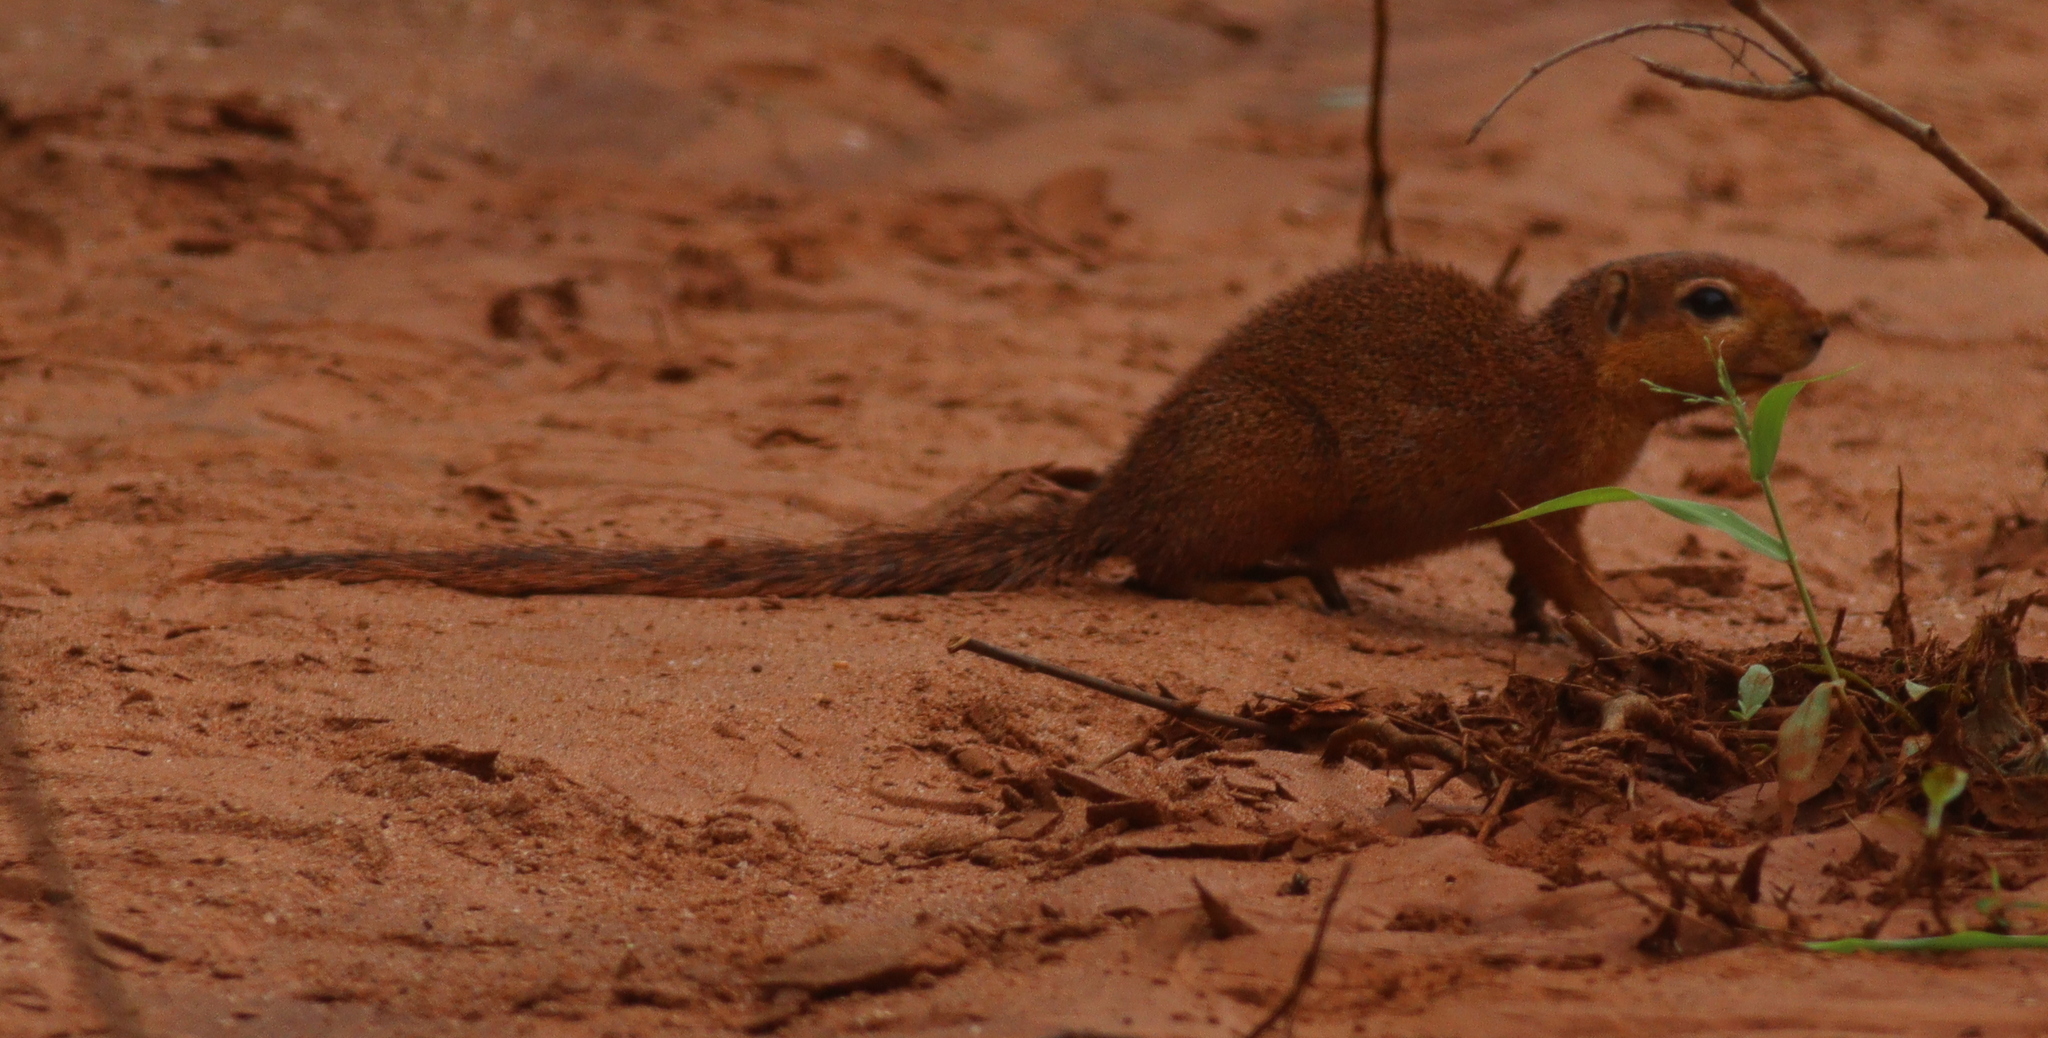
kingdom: Animalia
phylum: Chordata
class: Mammalia
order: Rodentia
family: Sciuridae
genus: Xerus
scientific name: Xerus rutilus
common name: Unstriped ground squirrel
